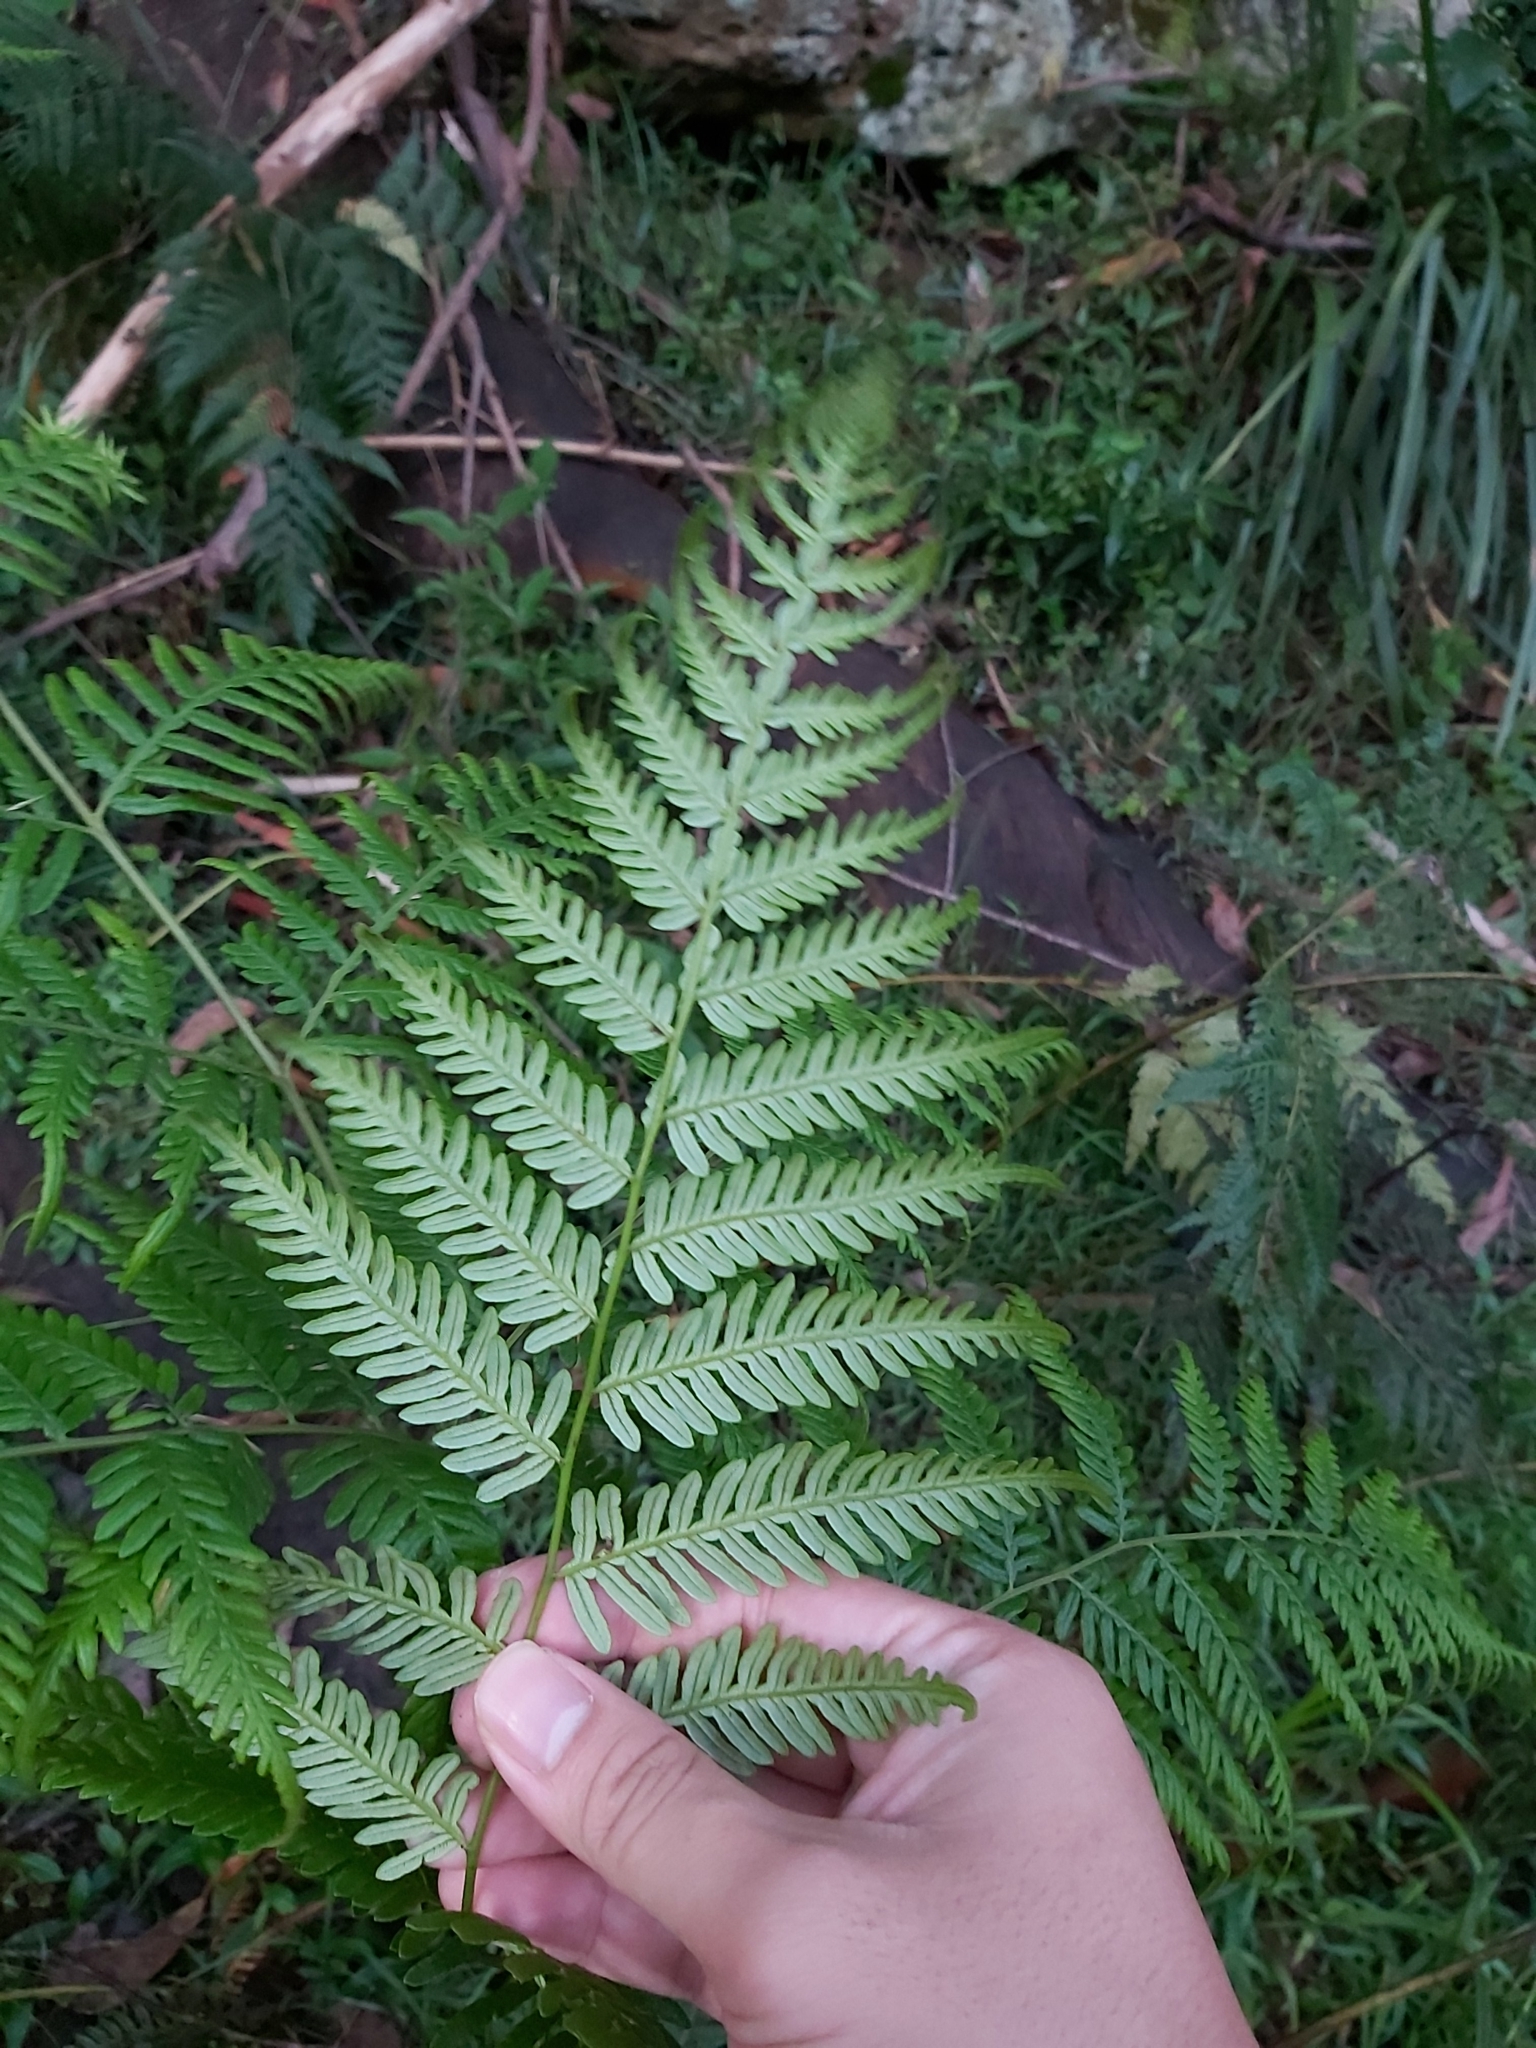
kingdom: Plantae
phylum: Tracheophyta
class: Polypodiopsida
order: Polypodiales
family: Dennstaedtiaceae
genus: Pteridium
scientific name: Pteridium esculentum
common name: Bracken fern
